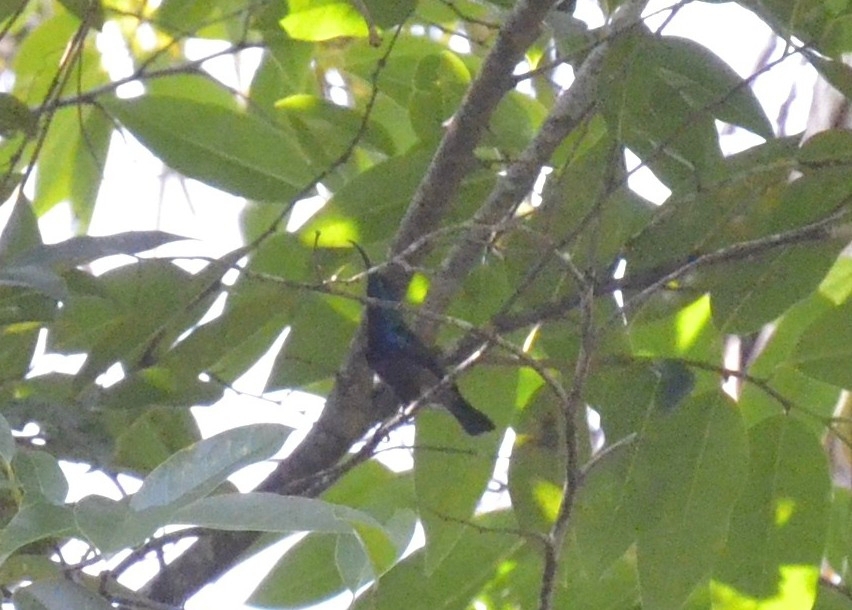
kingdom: Animalia
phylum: Chordata
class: Aves
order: Passeriformes
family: Nectariniidae
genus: Cinnyris
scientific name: Cinnyris lotenius
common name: Loten's sunbird
